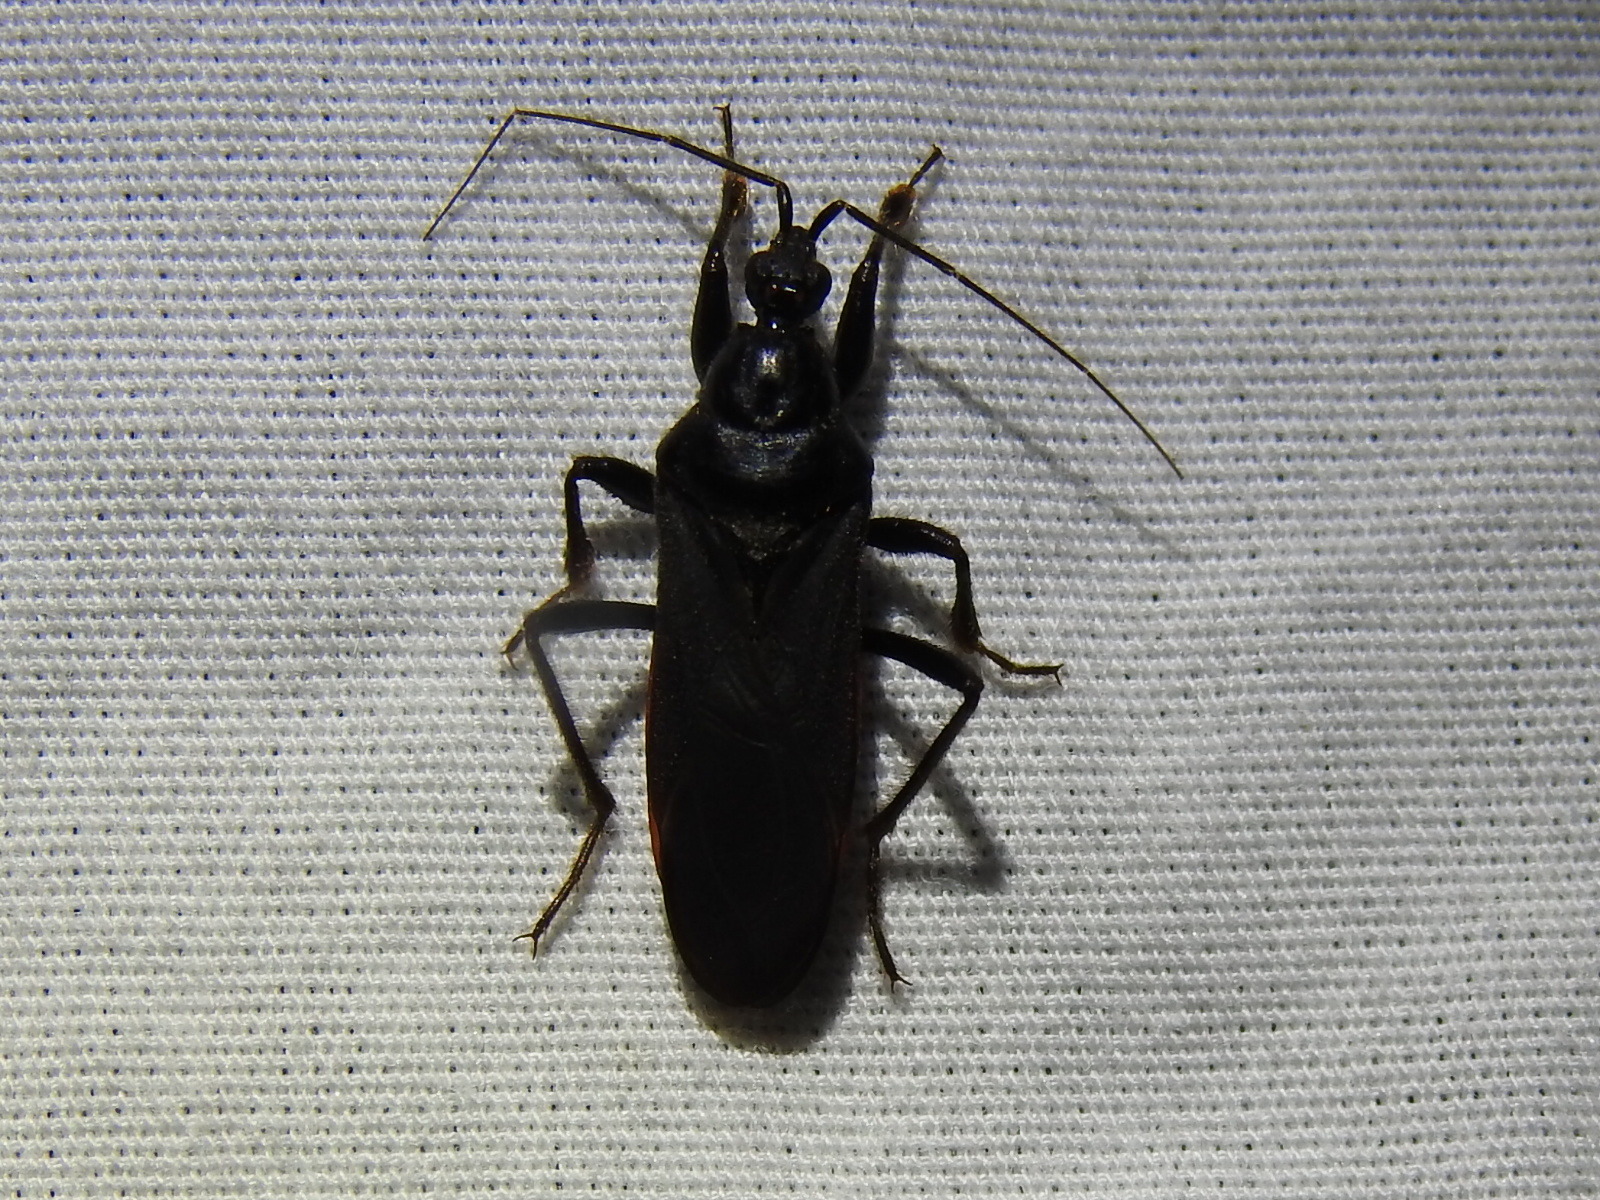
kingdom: Animalia
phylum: Arthropoda
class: Insecta
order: Hemiptera
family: Reduviidae
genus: Melanolestes
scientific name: Melanolestes picipes
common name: Assassin bug
